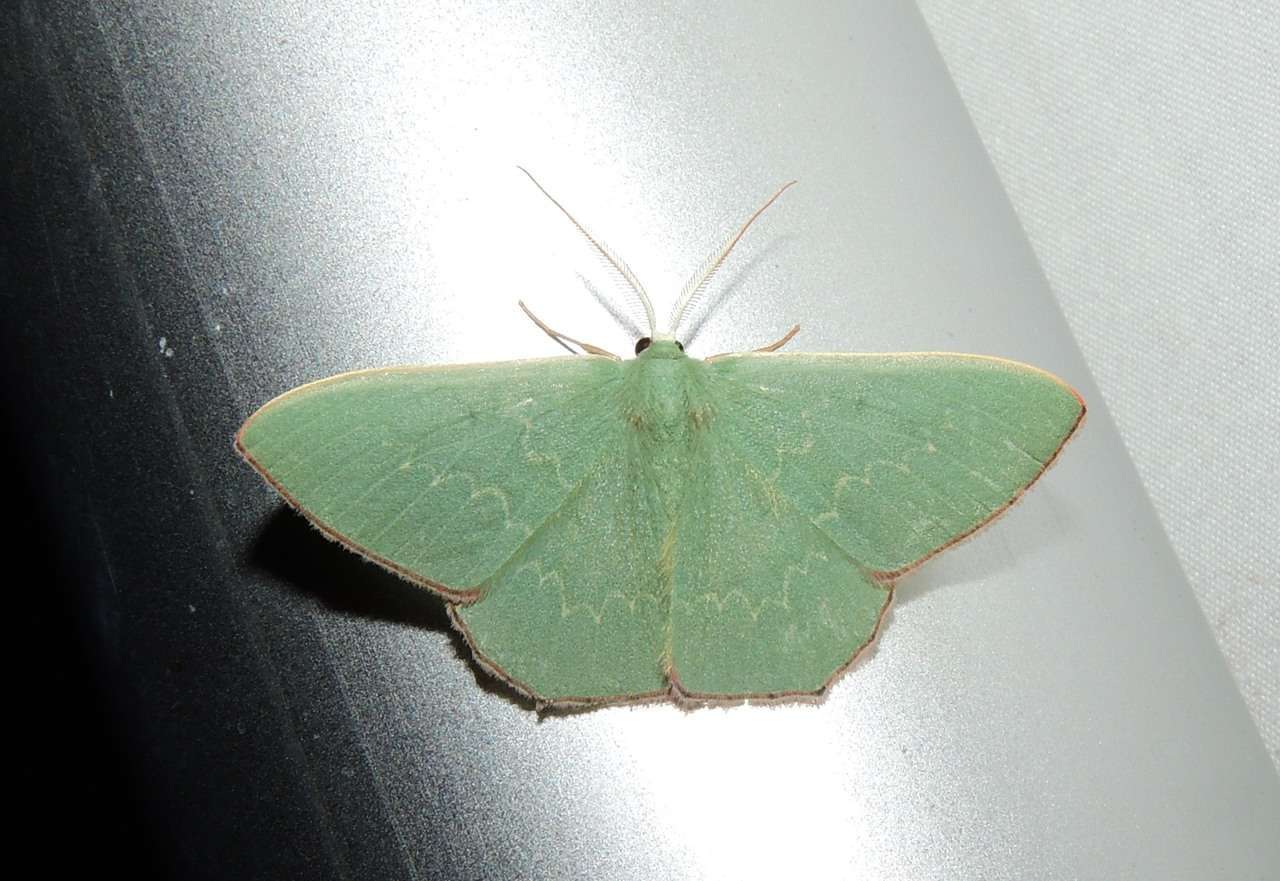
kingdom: Animalia
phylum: Arthropoda
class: Insecta
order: Lepidoptera
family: Geometridae
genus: Prasinocyma
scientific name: Prasinocyma semicrocea
